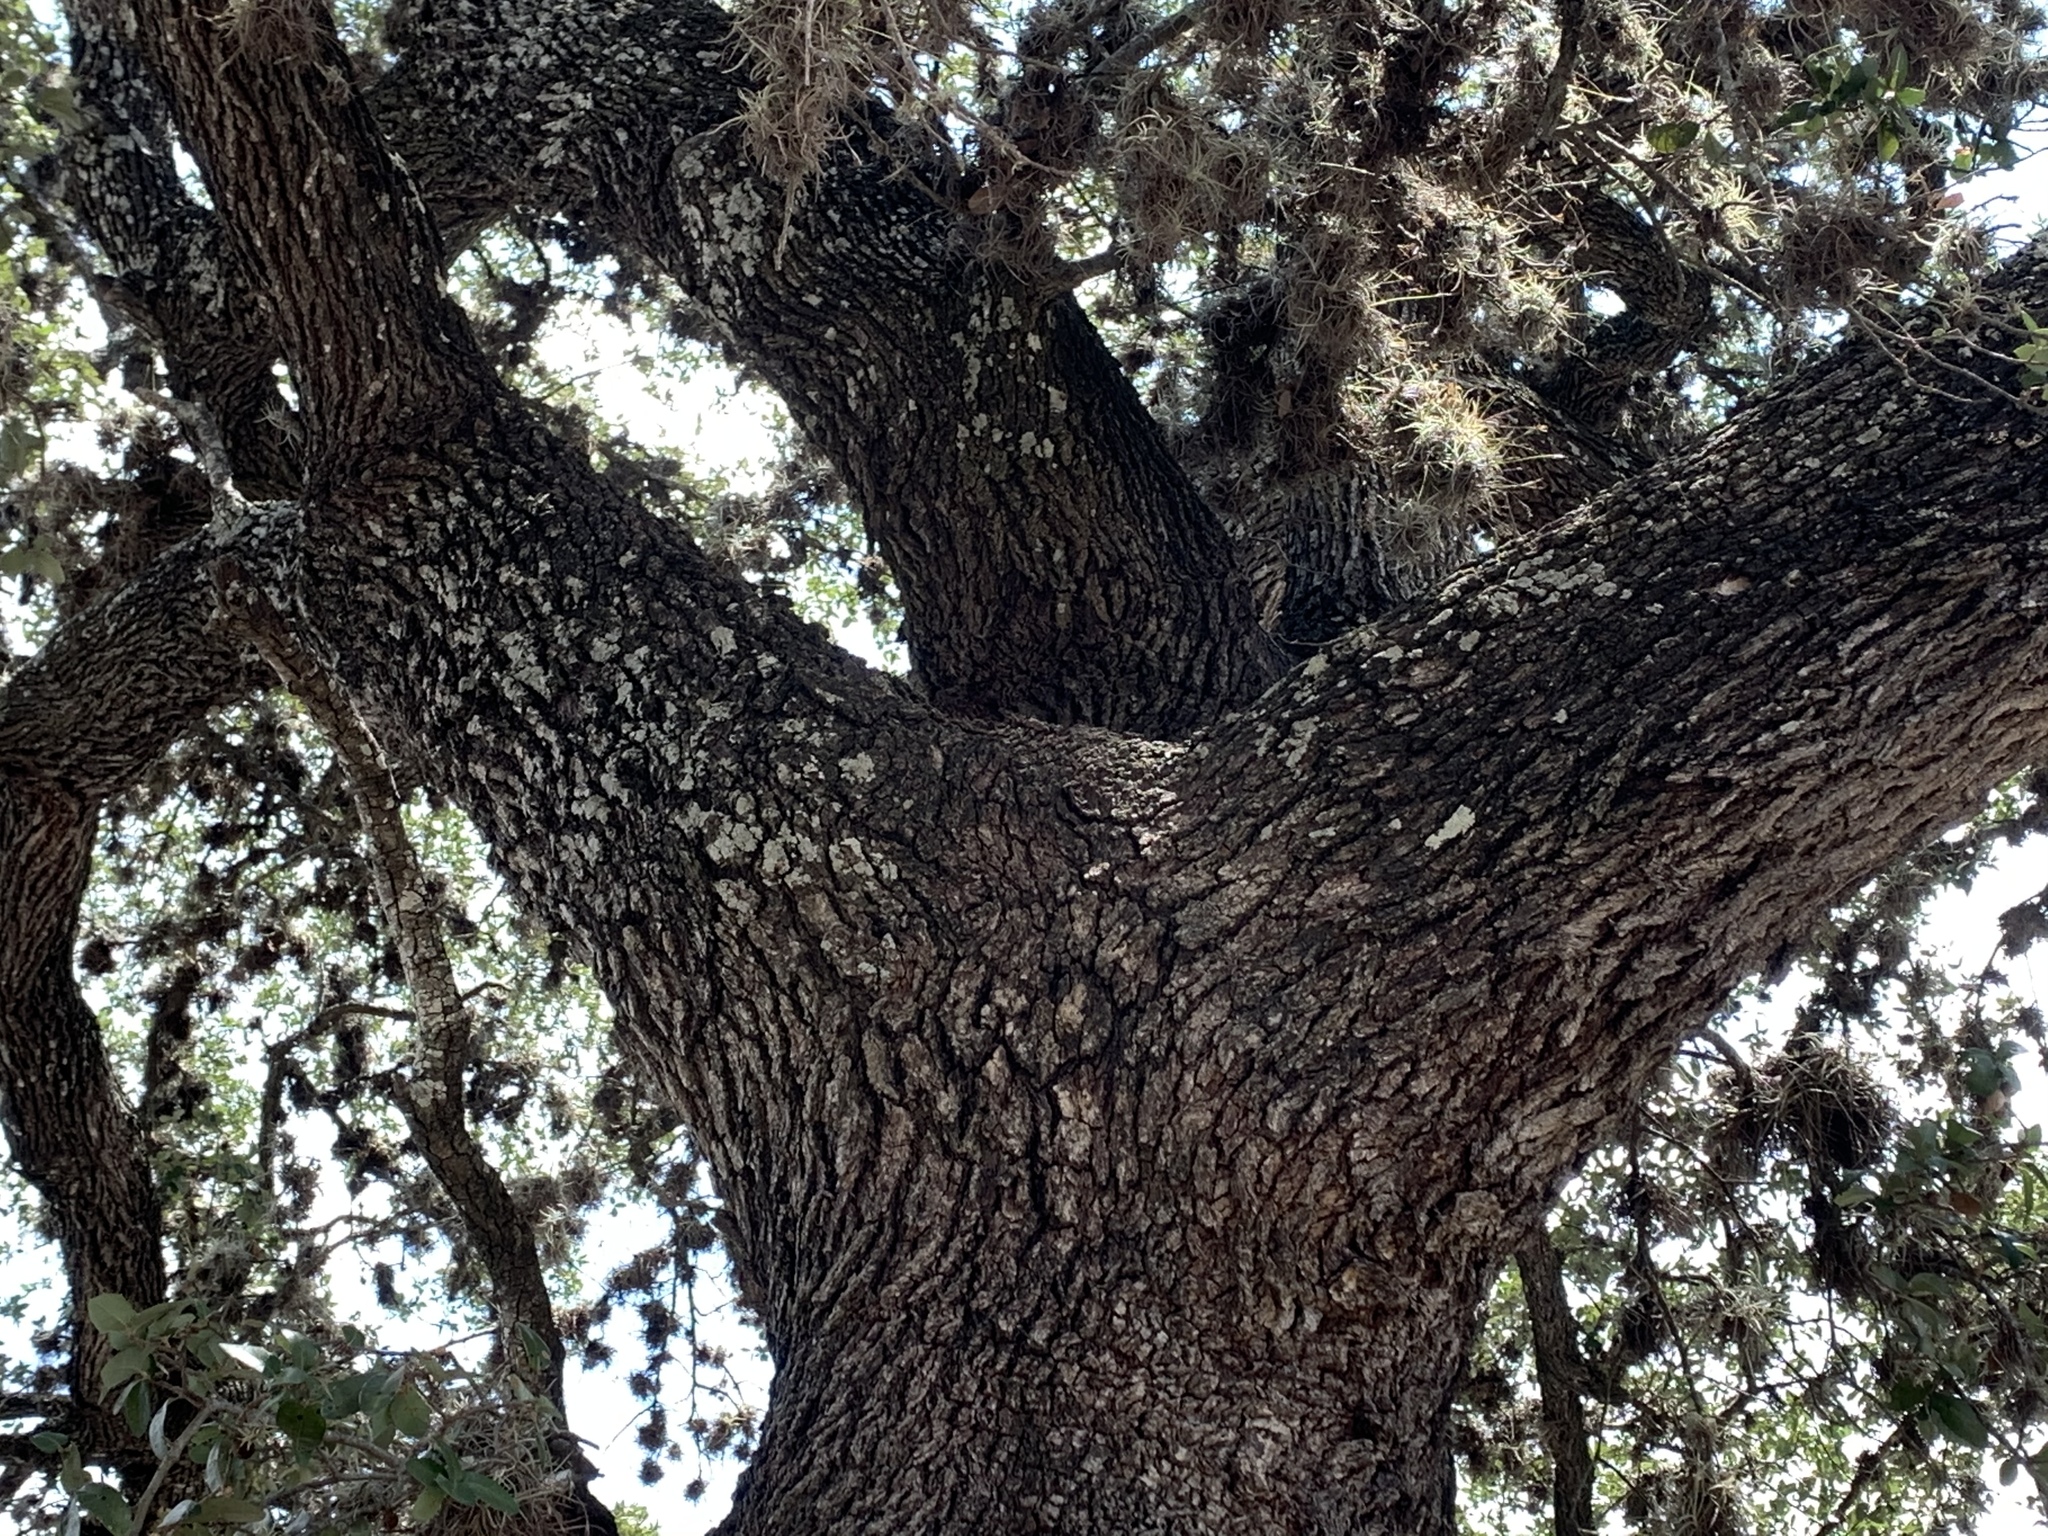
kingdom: Plantae
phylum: Tracheophyta
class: Magnoliopsida
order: Fagales
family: Fagaceae
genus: Quercus
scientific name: Quercus virginiana
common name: Southern live oak
